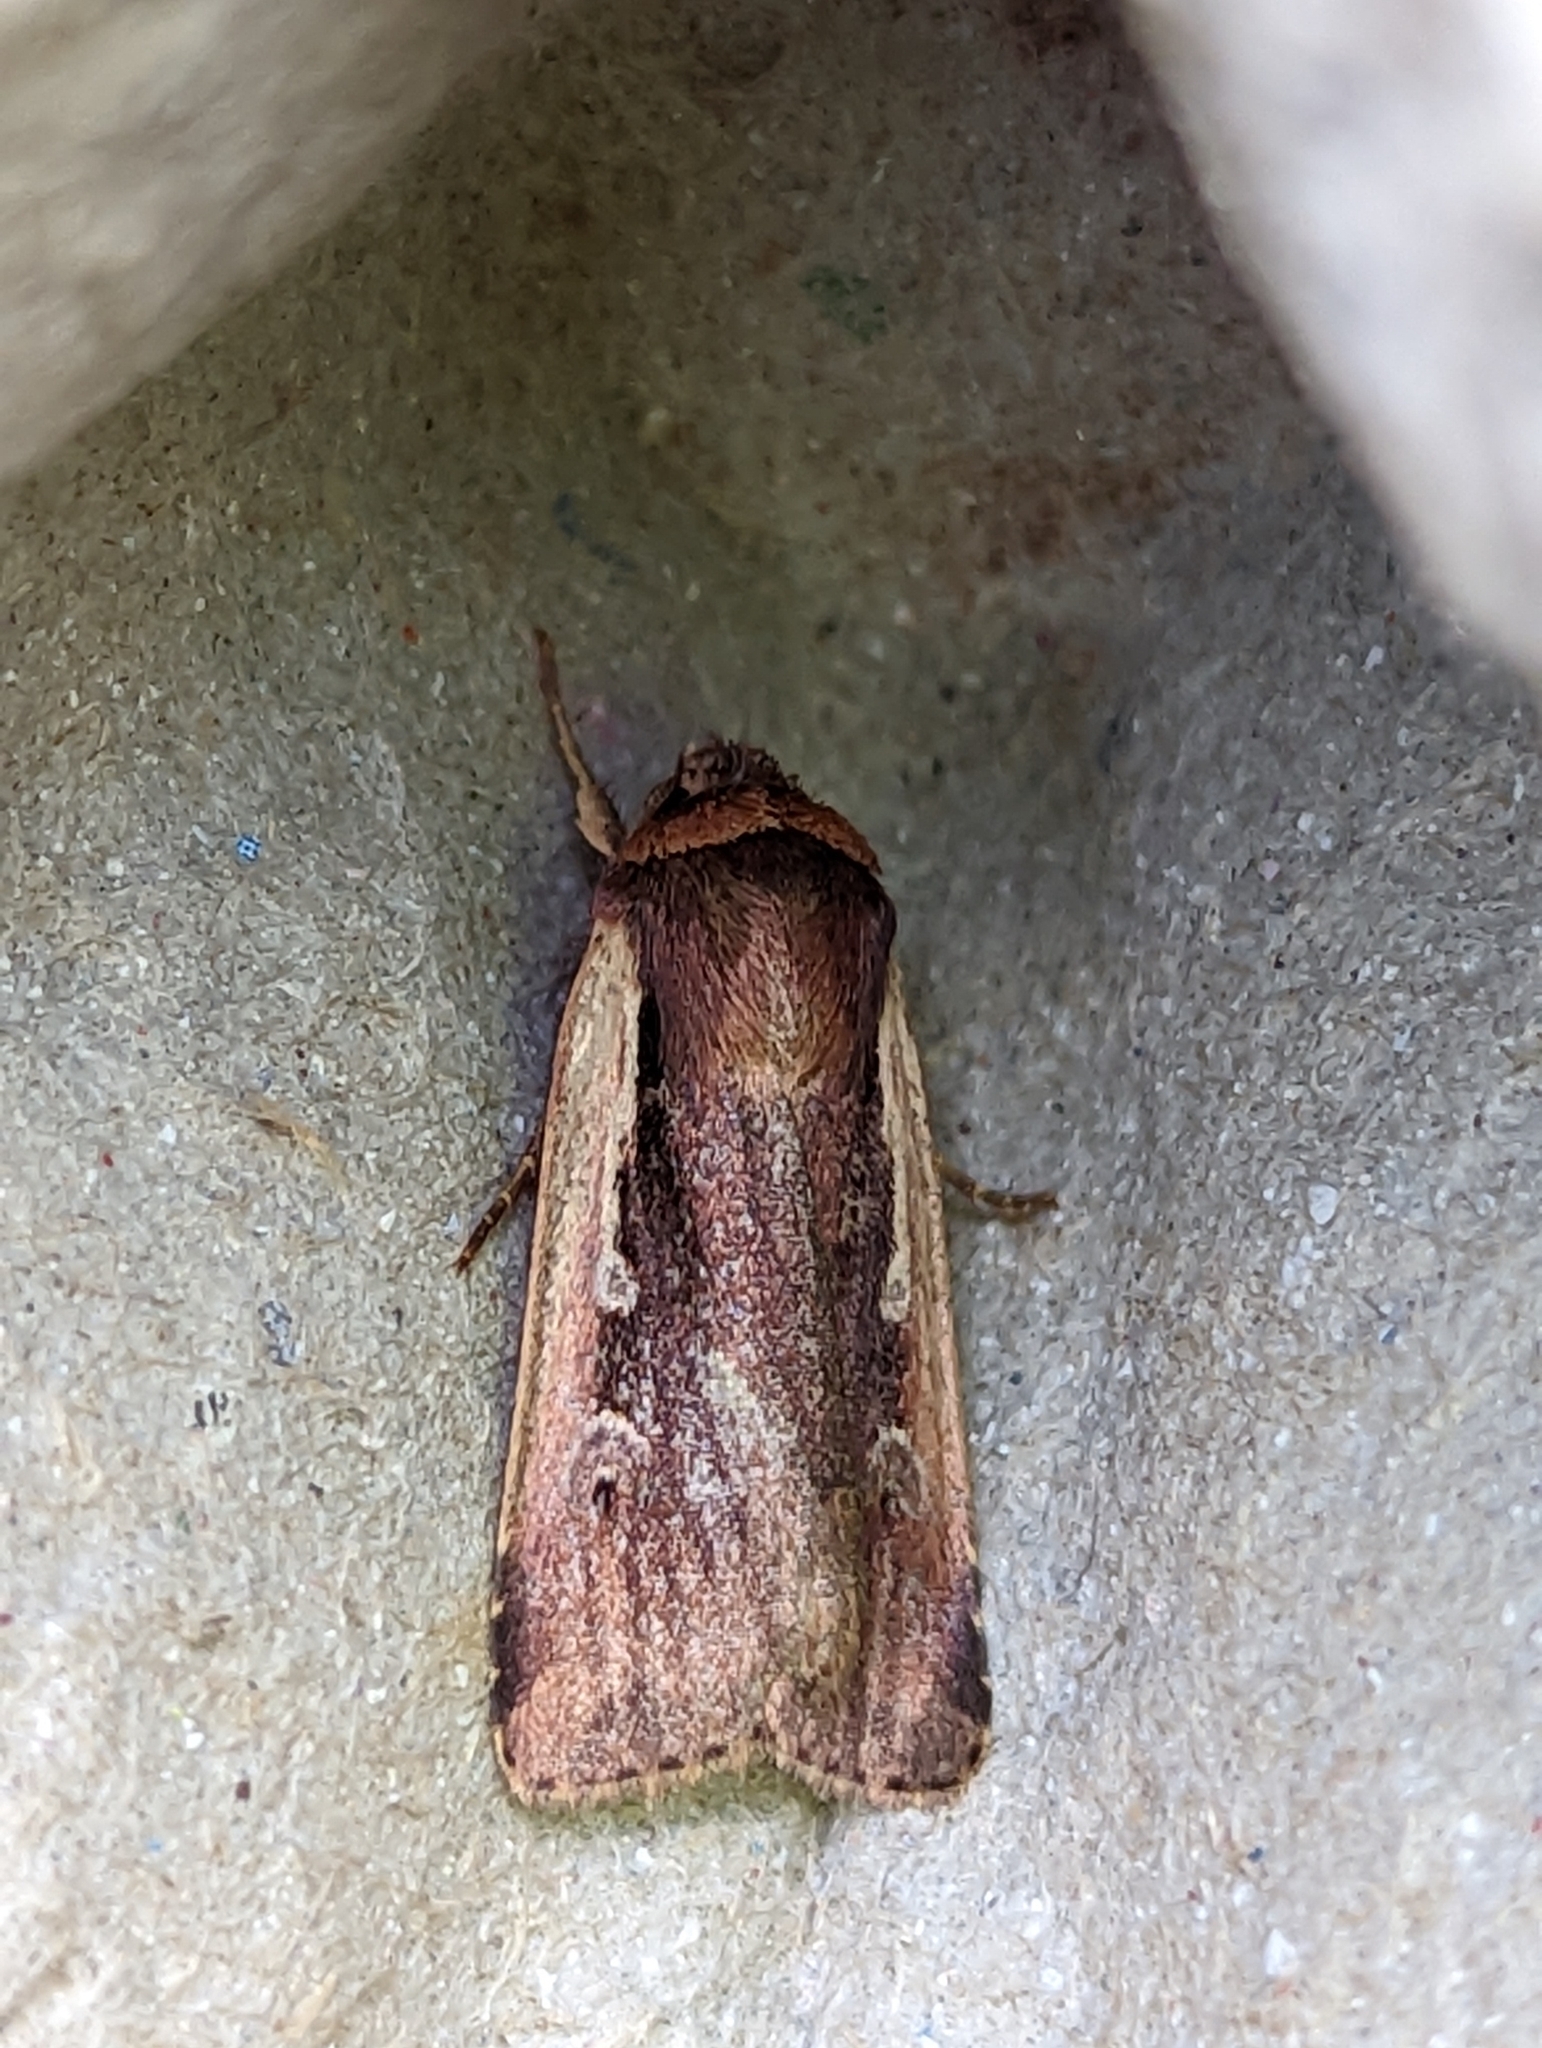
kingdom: Animalia
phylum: Arthropoda
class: Insecta
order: Lepidoptera
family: Noctuidae
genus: Ochropleura
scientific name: Ochropleura plecta
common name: Flame shoulder
